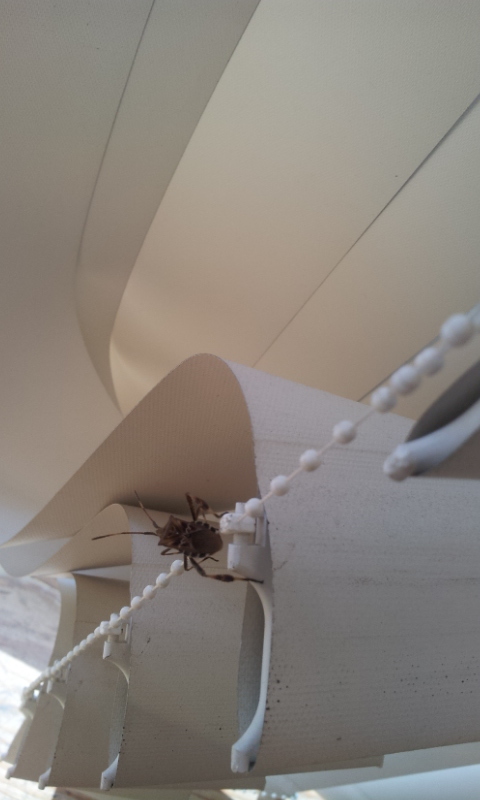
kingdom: Animalia
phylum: Arthropoda
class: Insecta
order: Hemiptera
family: Coreidae
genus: Leptoglossus
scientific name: Leptoglossus occidentalis
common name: Western conifer-seed bug
